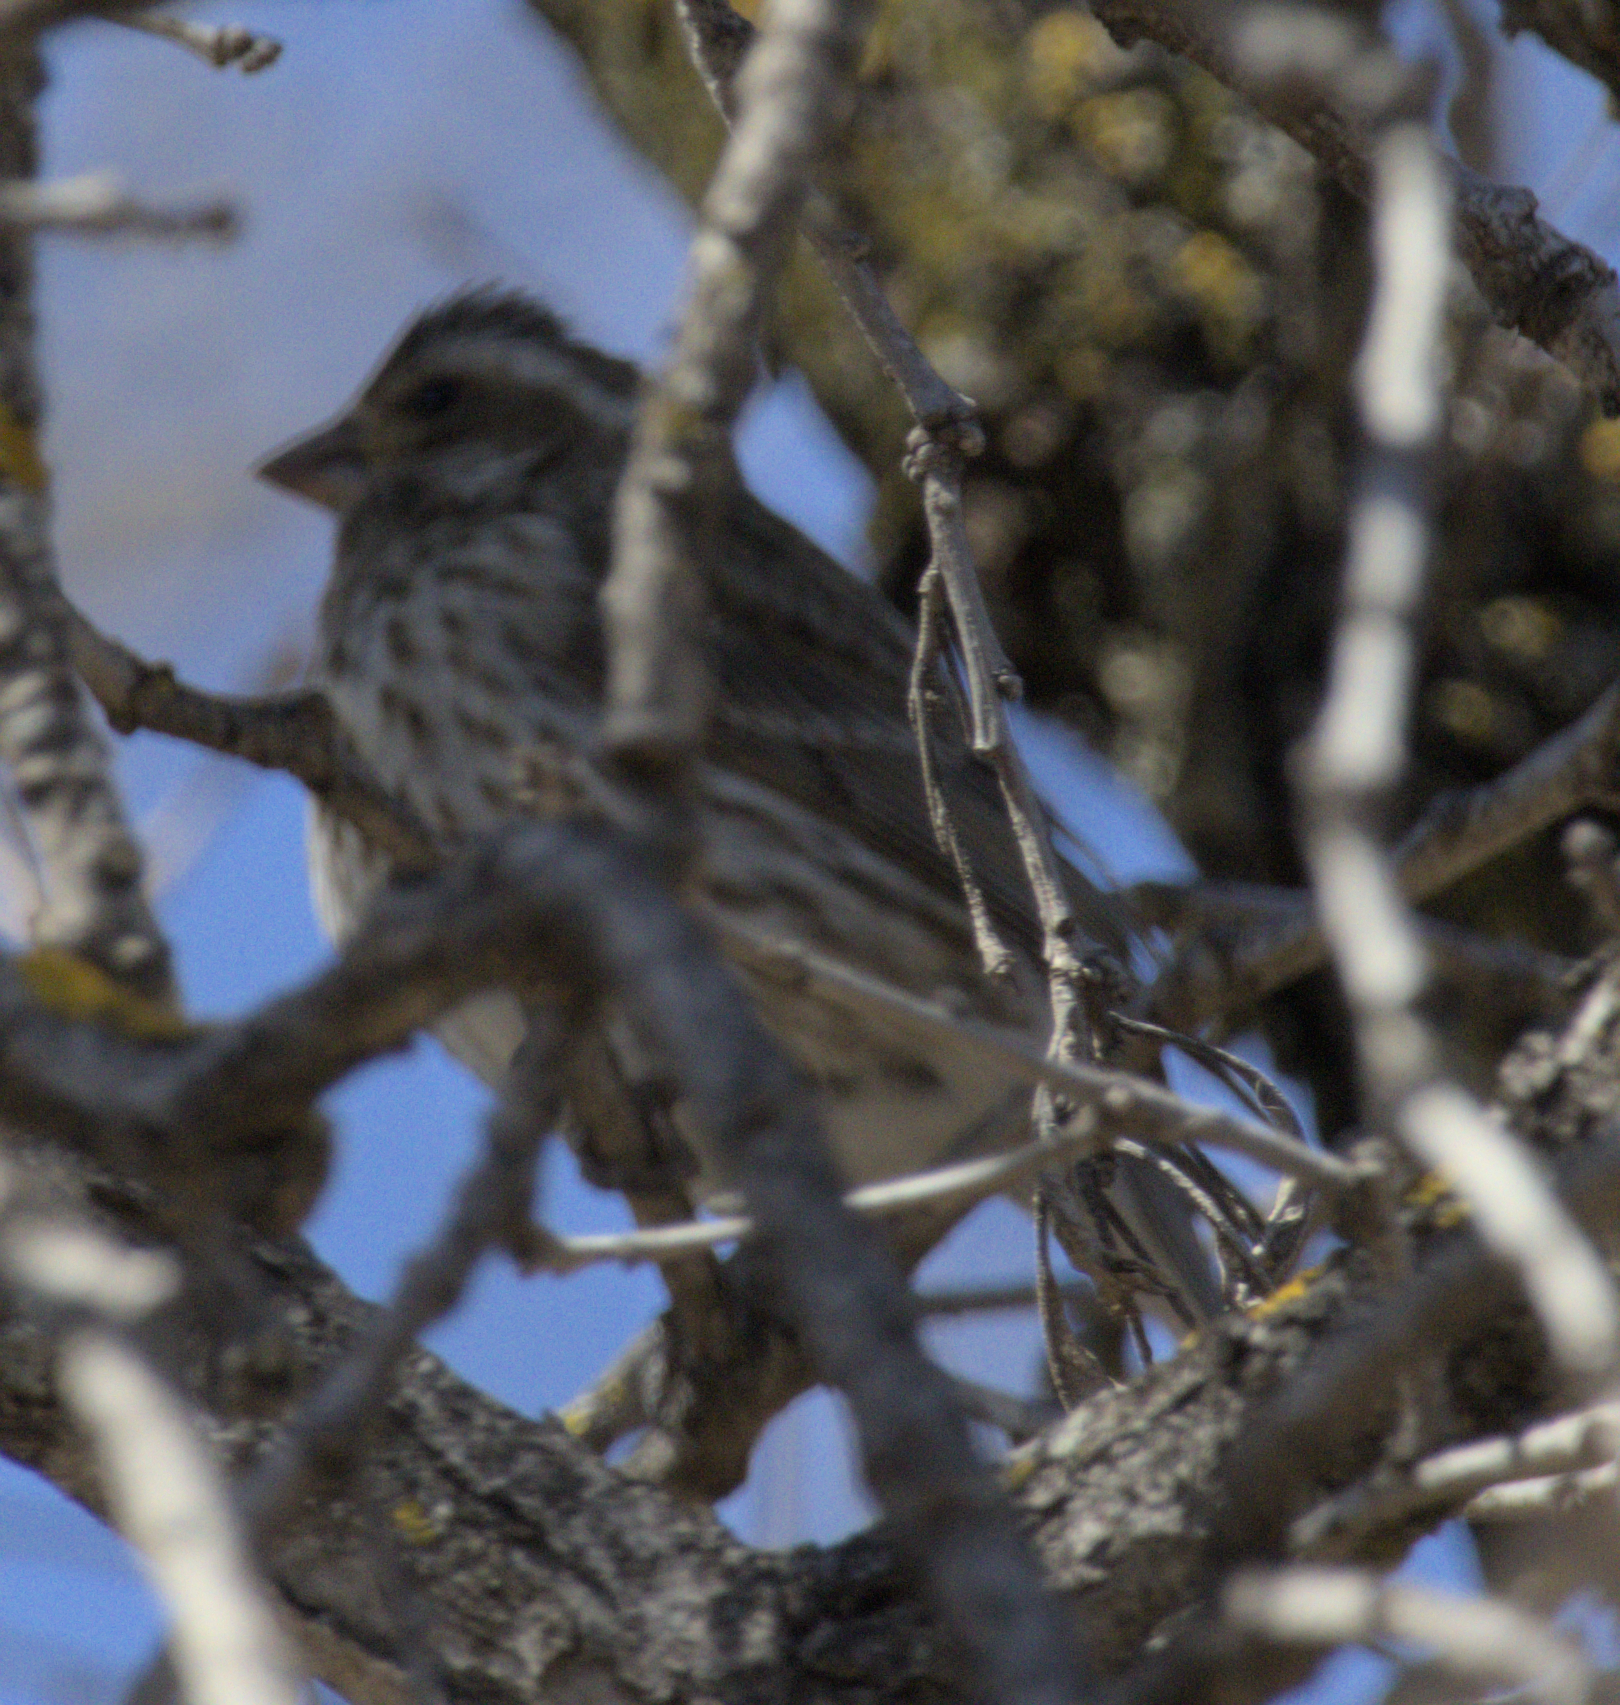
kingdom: Animalia
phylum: Chordata
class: Aves
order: Passeriformes
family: Fringillidae
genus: Haemorhous
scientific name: Haemorhous purpureus
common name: Purple finch
